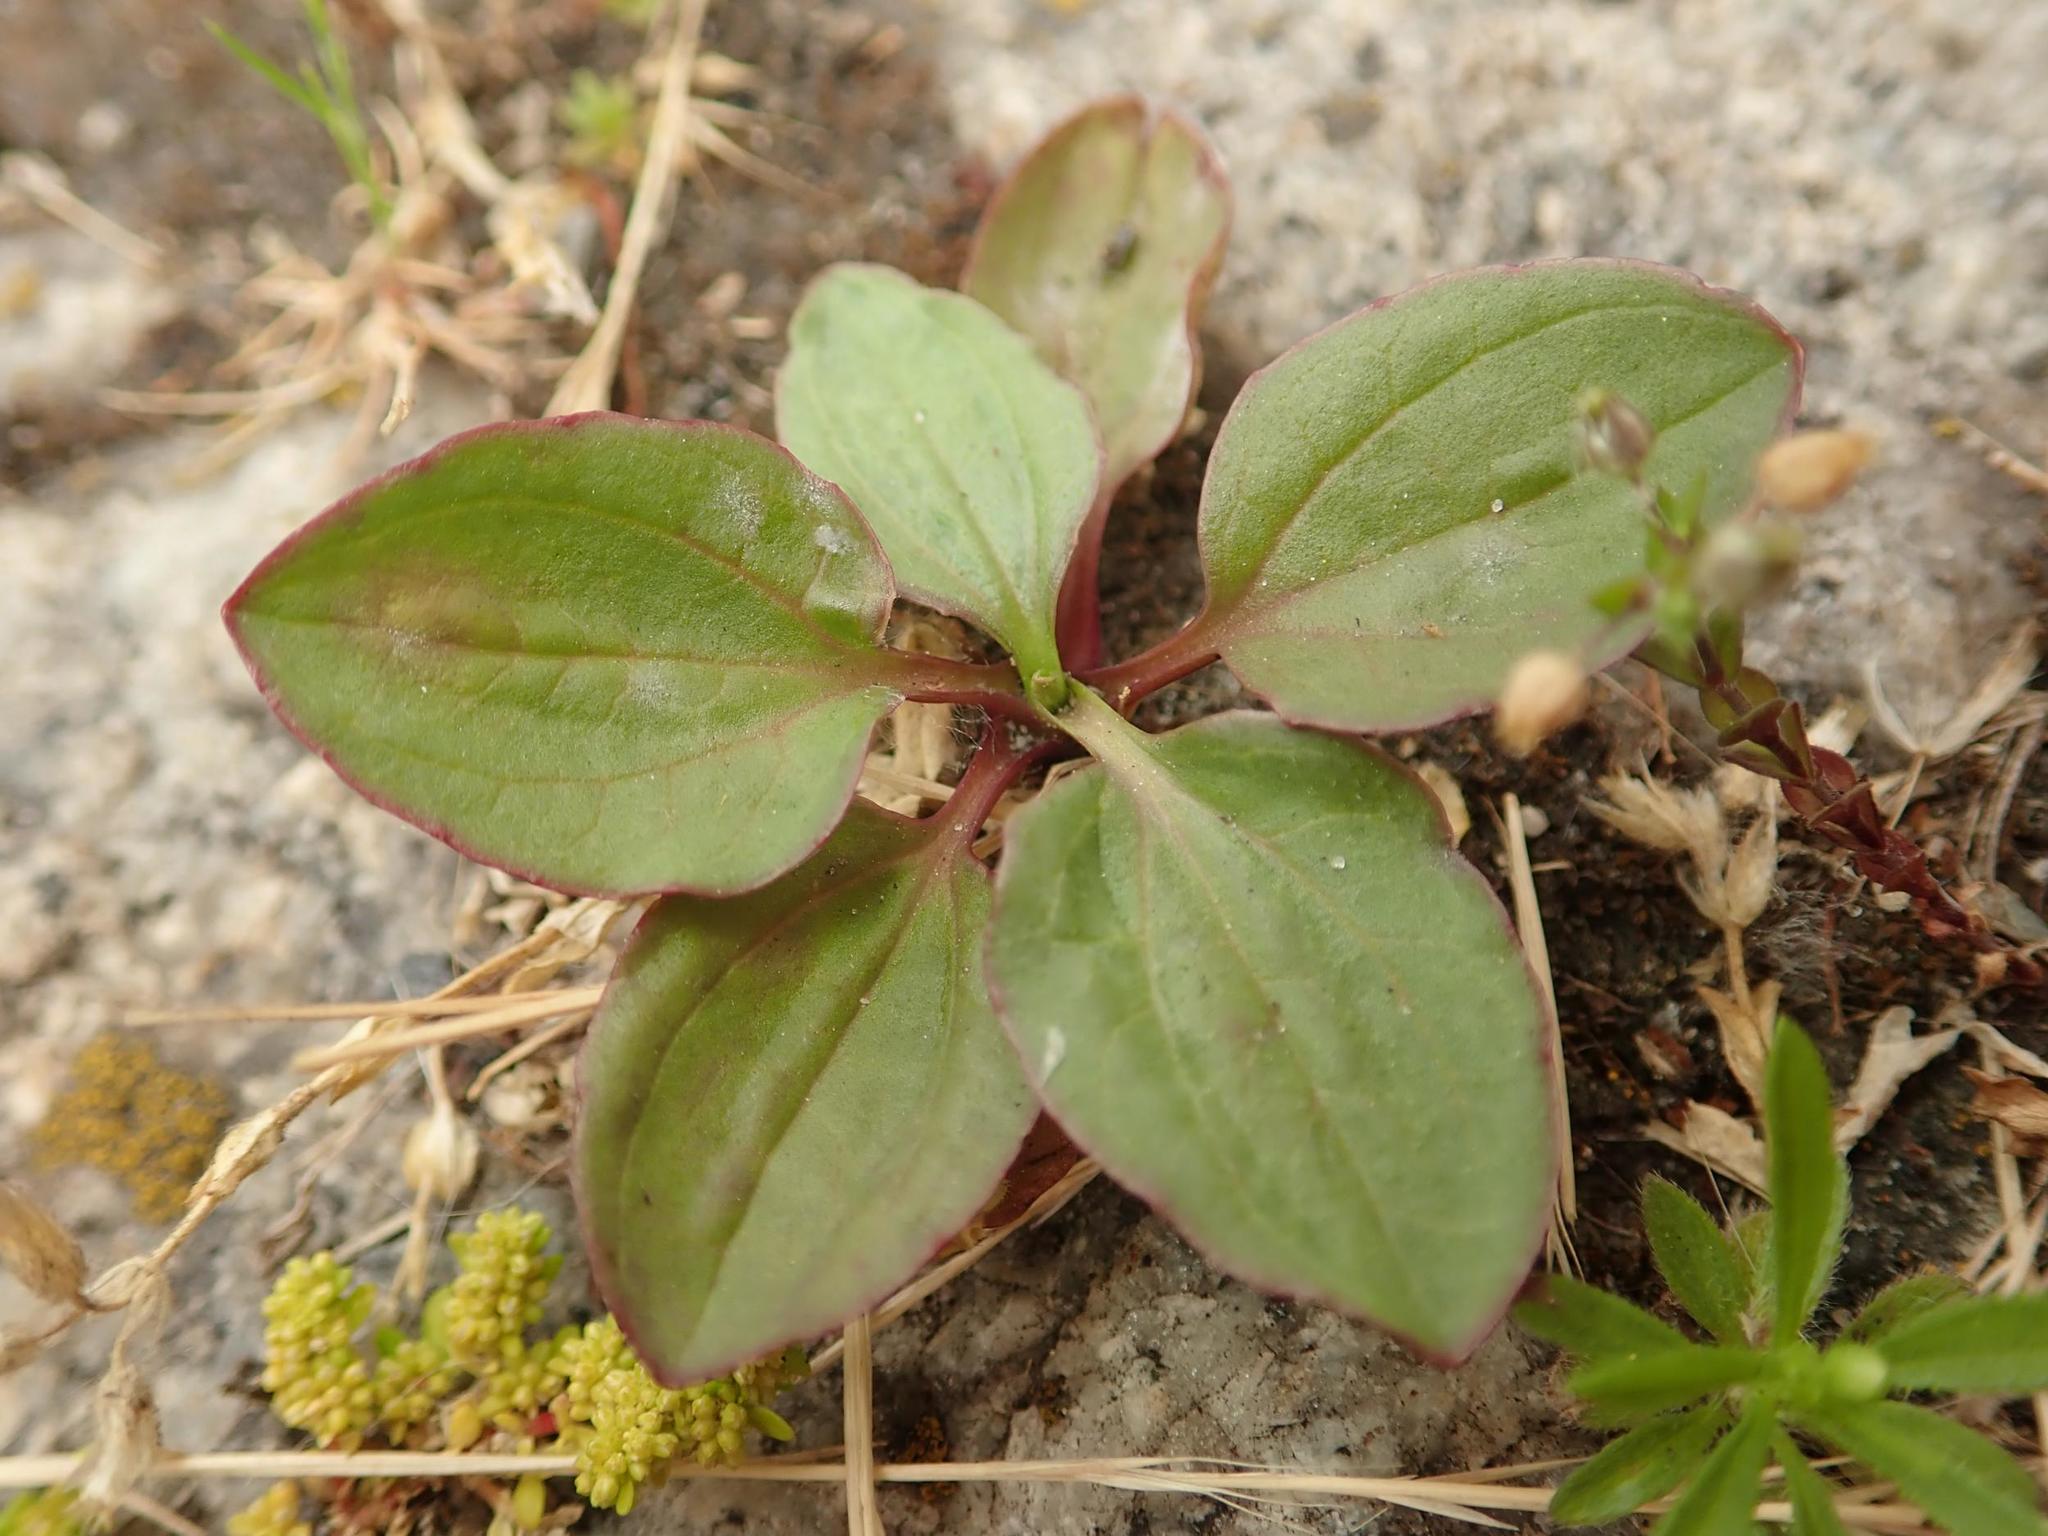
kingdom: Plantae
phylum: Tracheophyta
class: Magnoliopsida
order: Lamiales
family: Plantaginaceae
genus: Plantago
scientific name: Plantago major
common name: Common plantain
